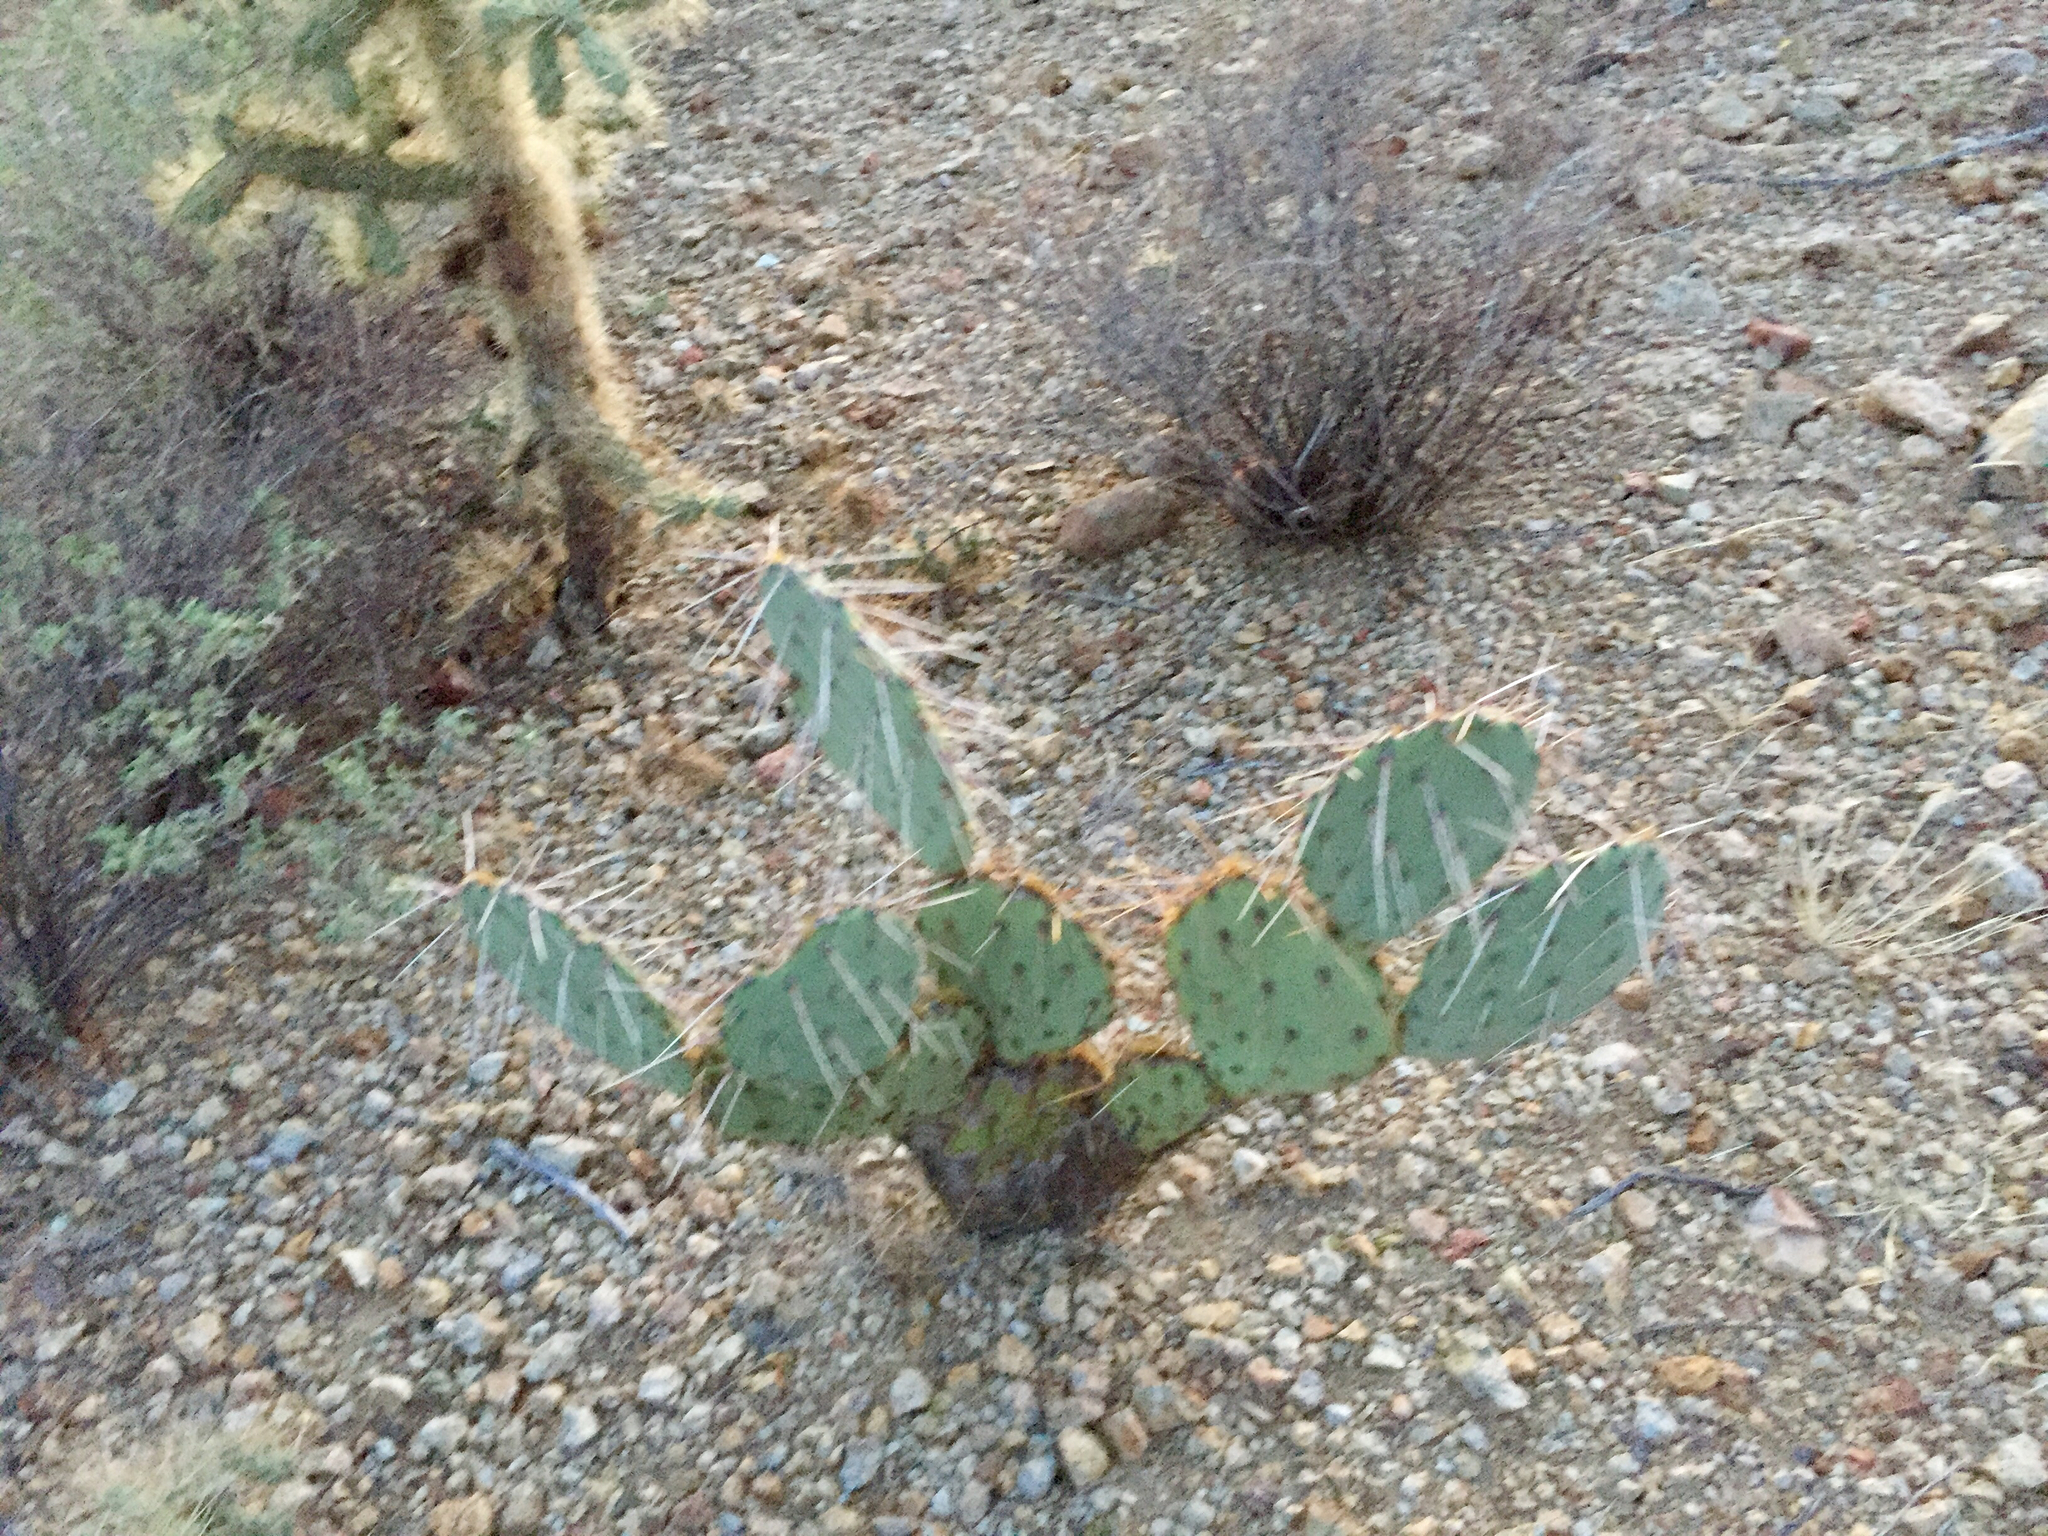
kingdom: Plantae
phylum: Tracheophyta
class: Magnoliopsida
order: Caryophyllales
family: Cactaceae
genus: Opuntia
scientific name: Opuntia engelmannii
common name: Cactus-apple
